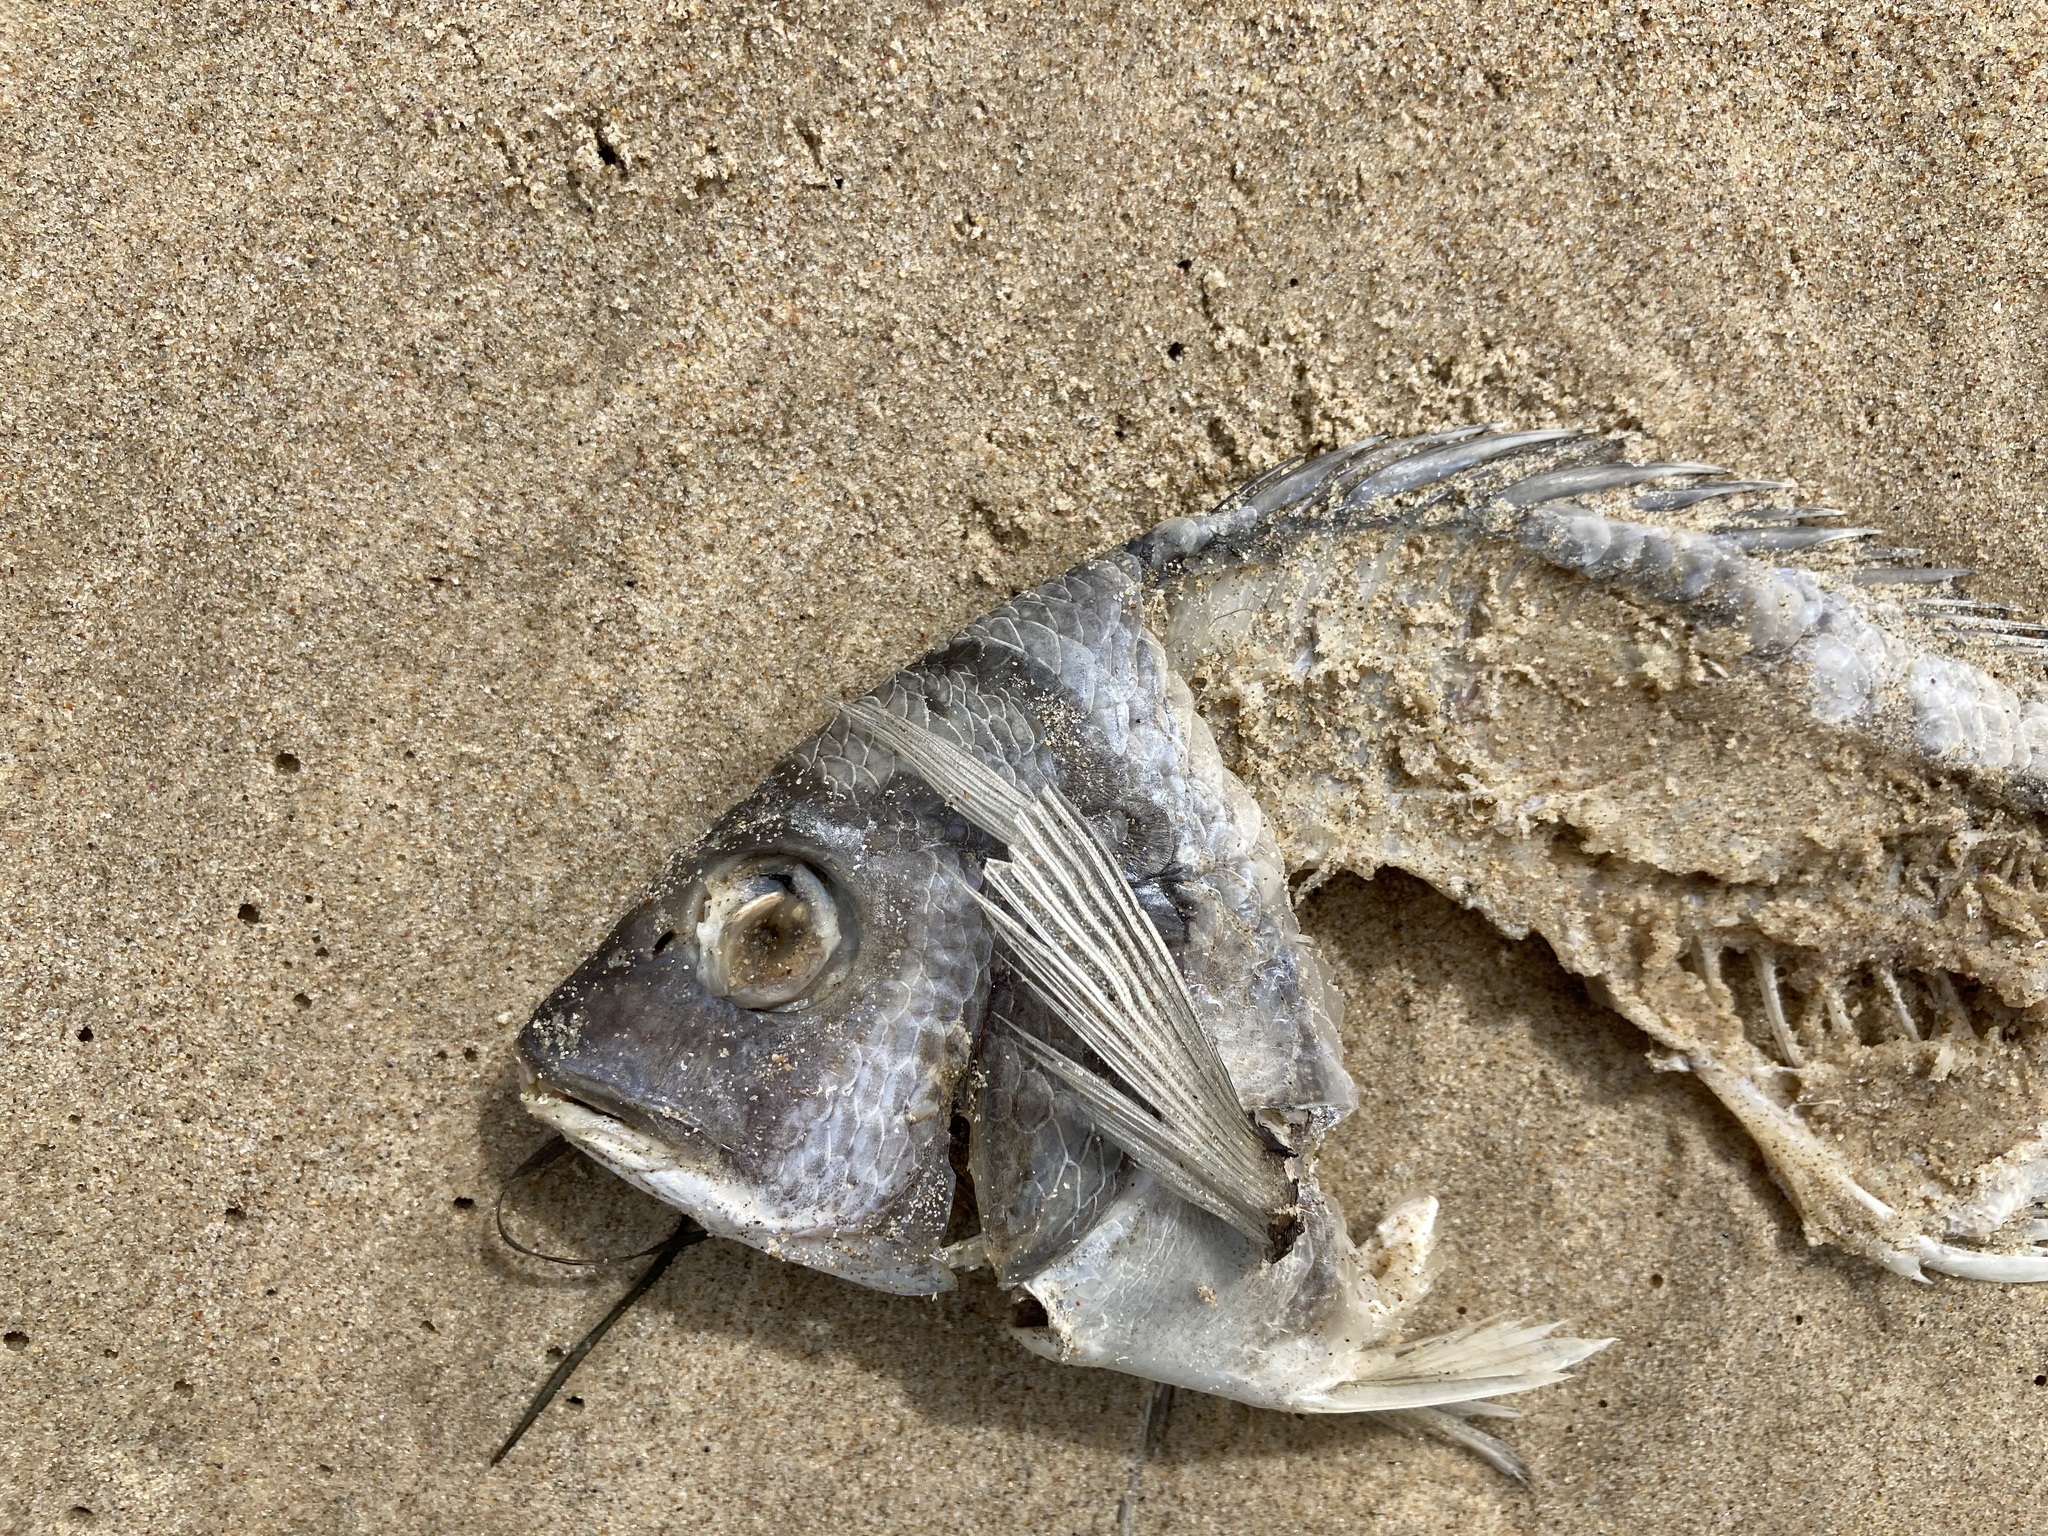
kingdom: Animalia
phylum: Chordata
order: Perciformes
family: Sparidae
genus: Acanthopagrus
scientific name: Acanthopagrus australis
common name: Surf bream
